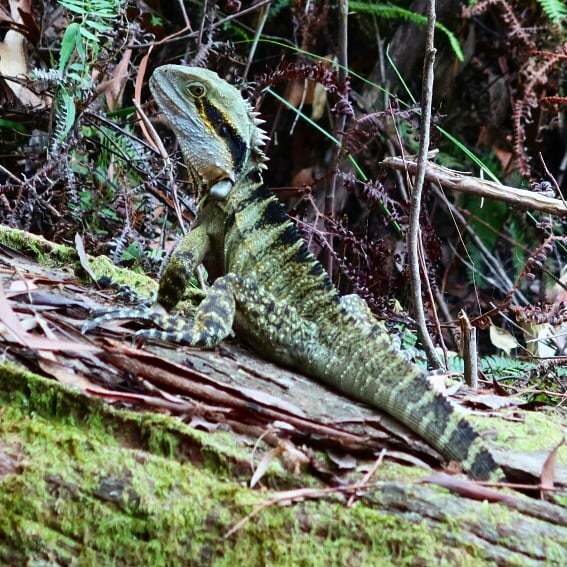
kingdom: Animalia
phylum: Chordata
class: Squamata
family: Agamidae
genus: Intellagama
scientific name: Intellagama lesueurii
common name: Eastern water dragon
